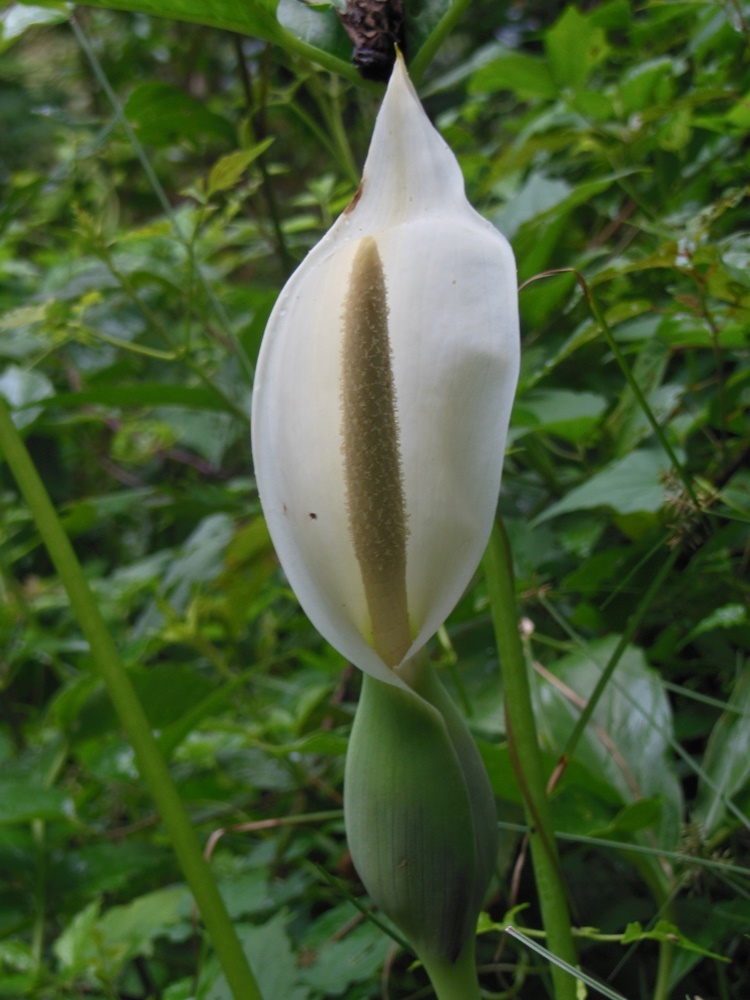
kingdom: Plantae
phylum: Tracheophyta
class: Liliopsida
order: Alismatales
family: Araceae
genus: Syngonium
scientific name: Syngonium angustatum
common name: Fivefingers
